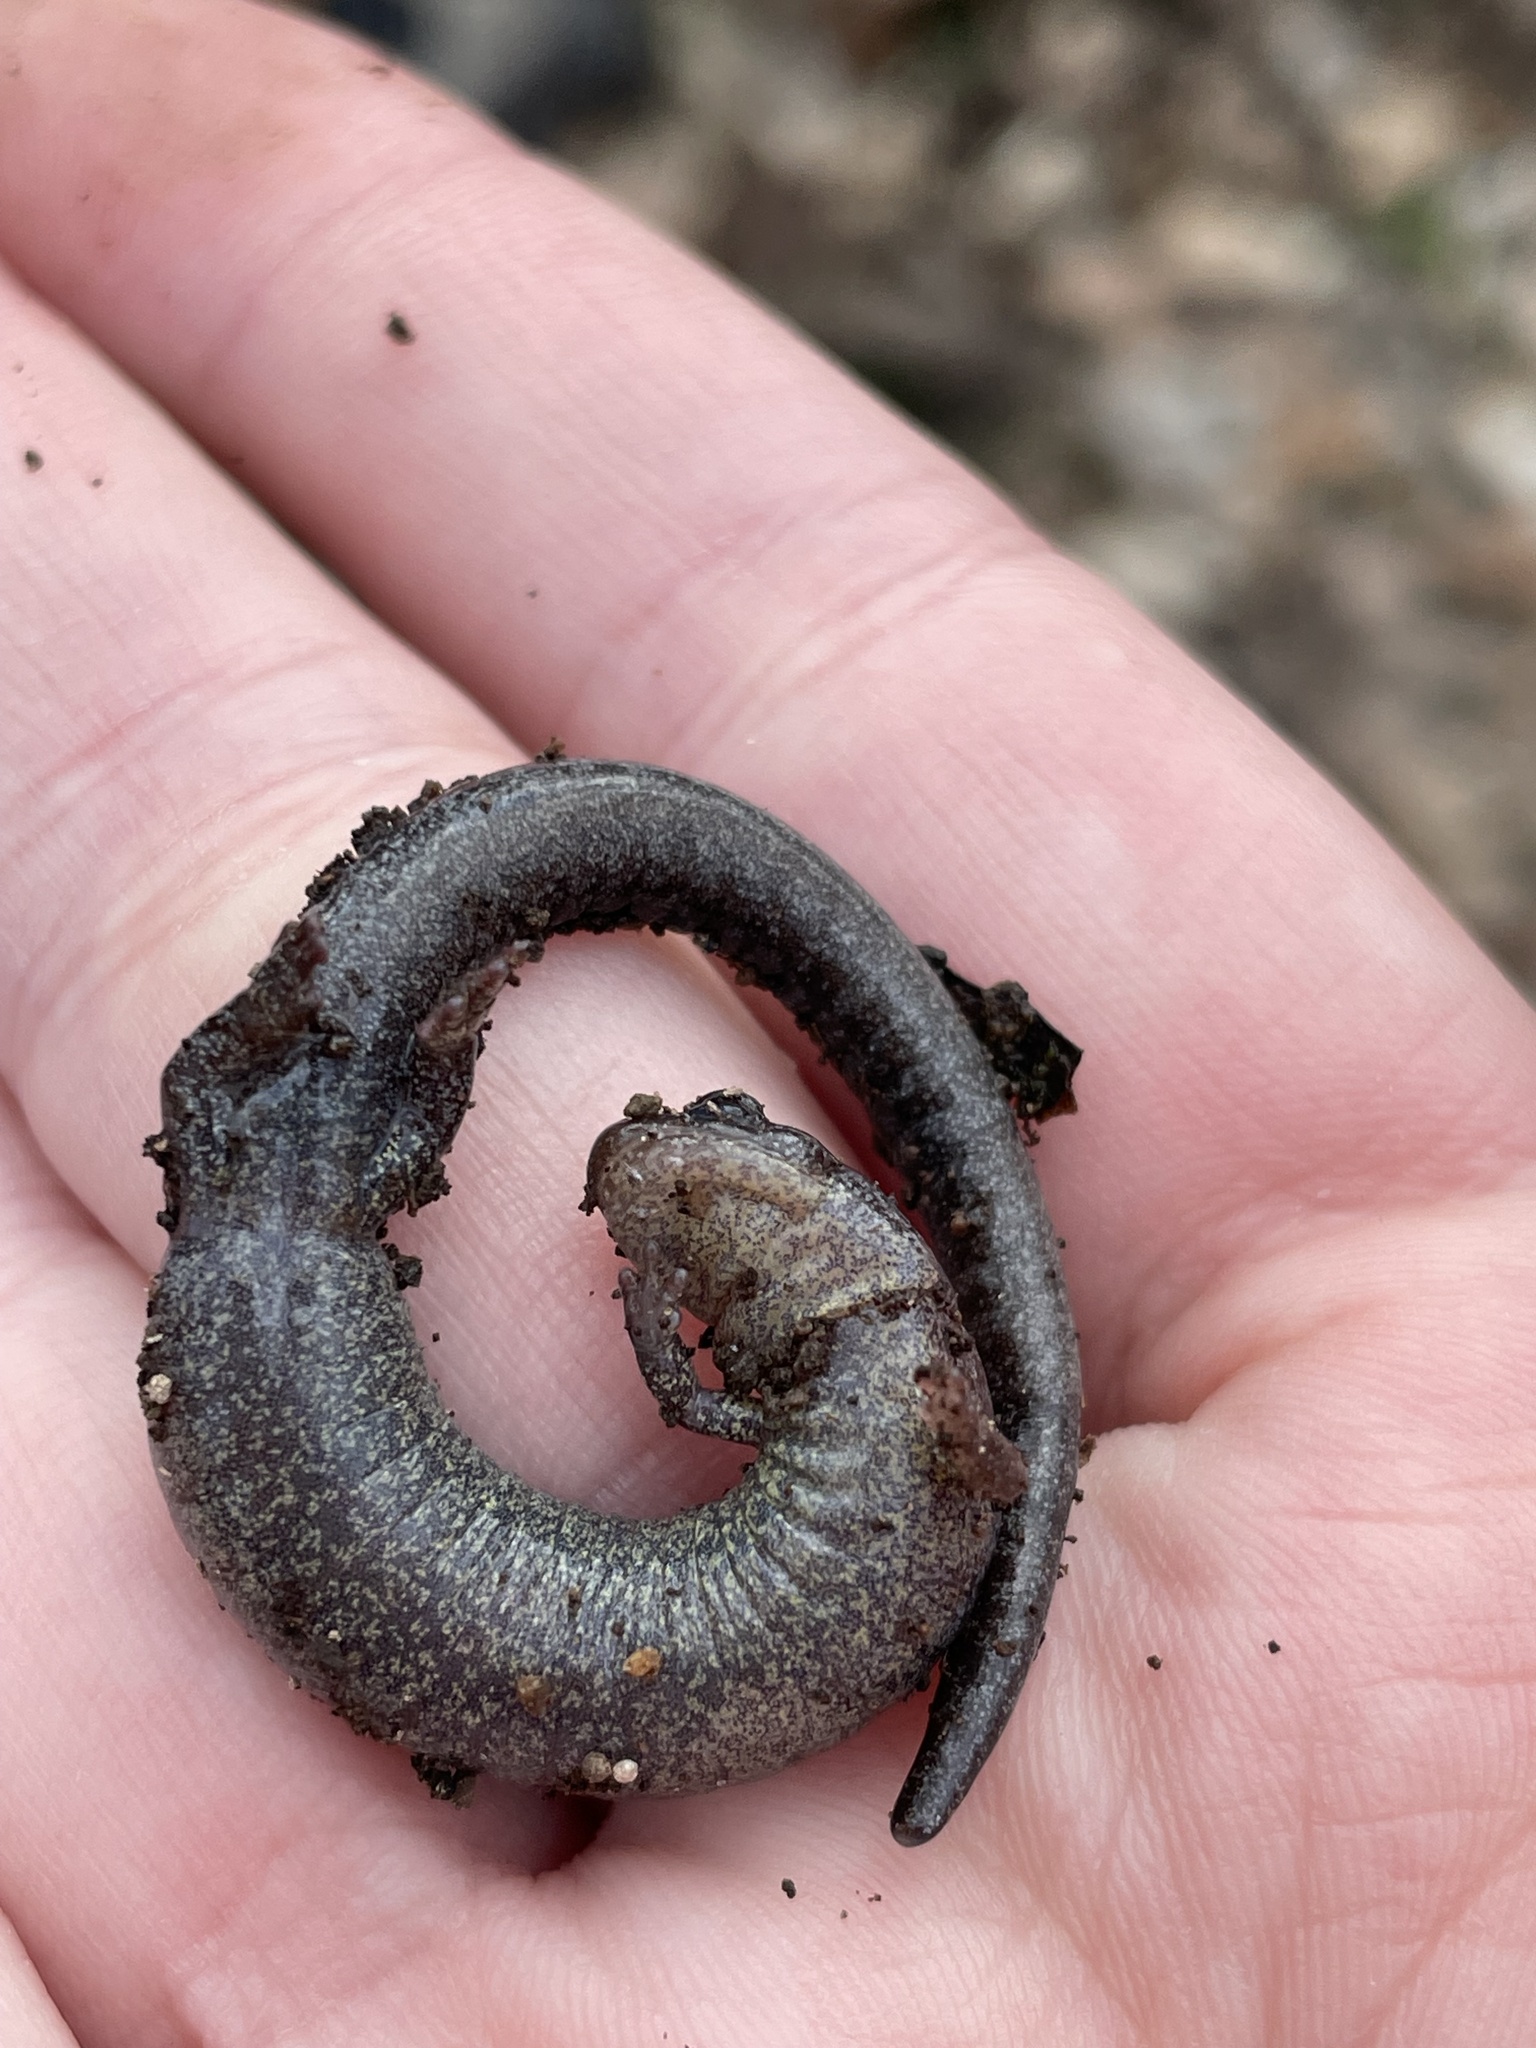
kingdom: Animalia
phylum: Chordata
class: Amphibia
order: Caudata
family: Plethodontidae
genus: Plethodon
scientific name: Plethodon dorsalis
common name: Northern zigzag salamander
